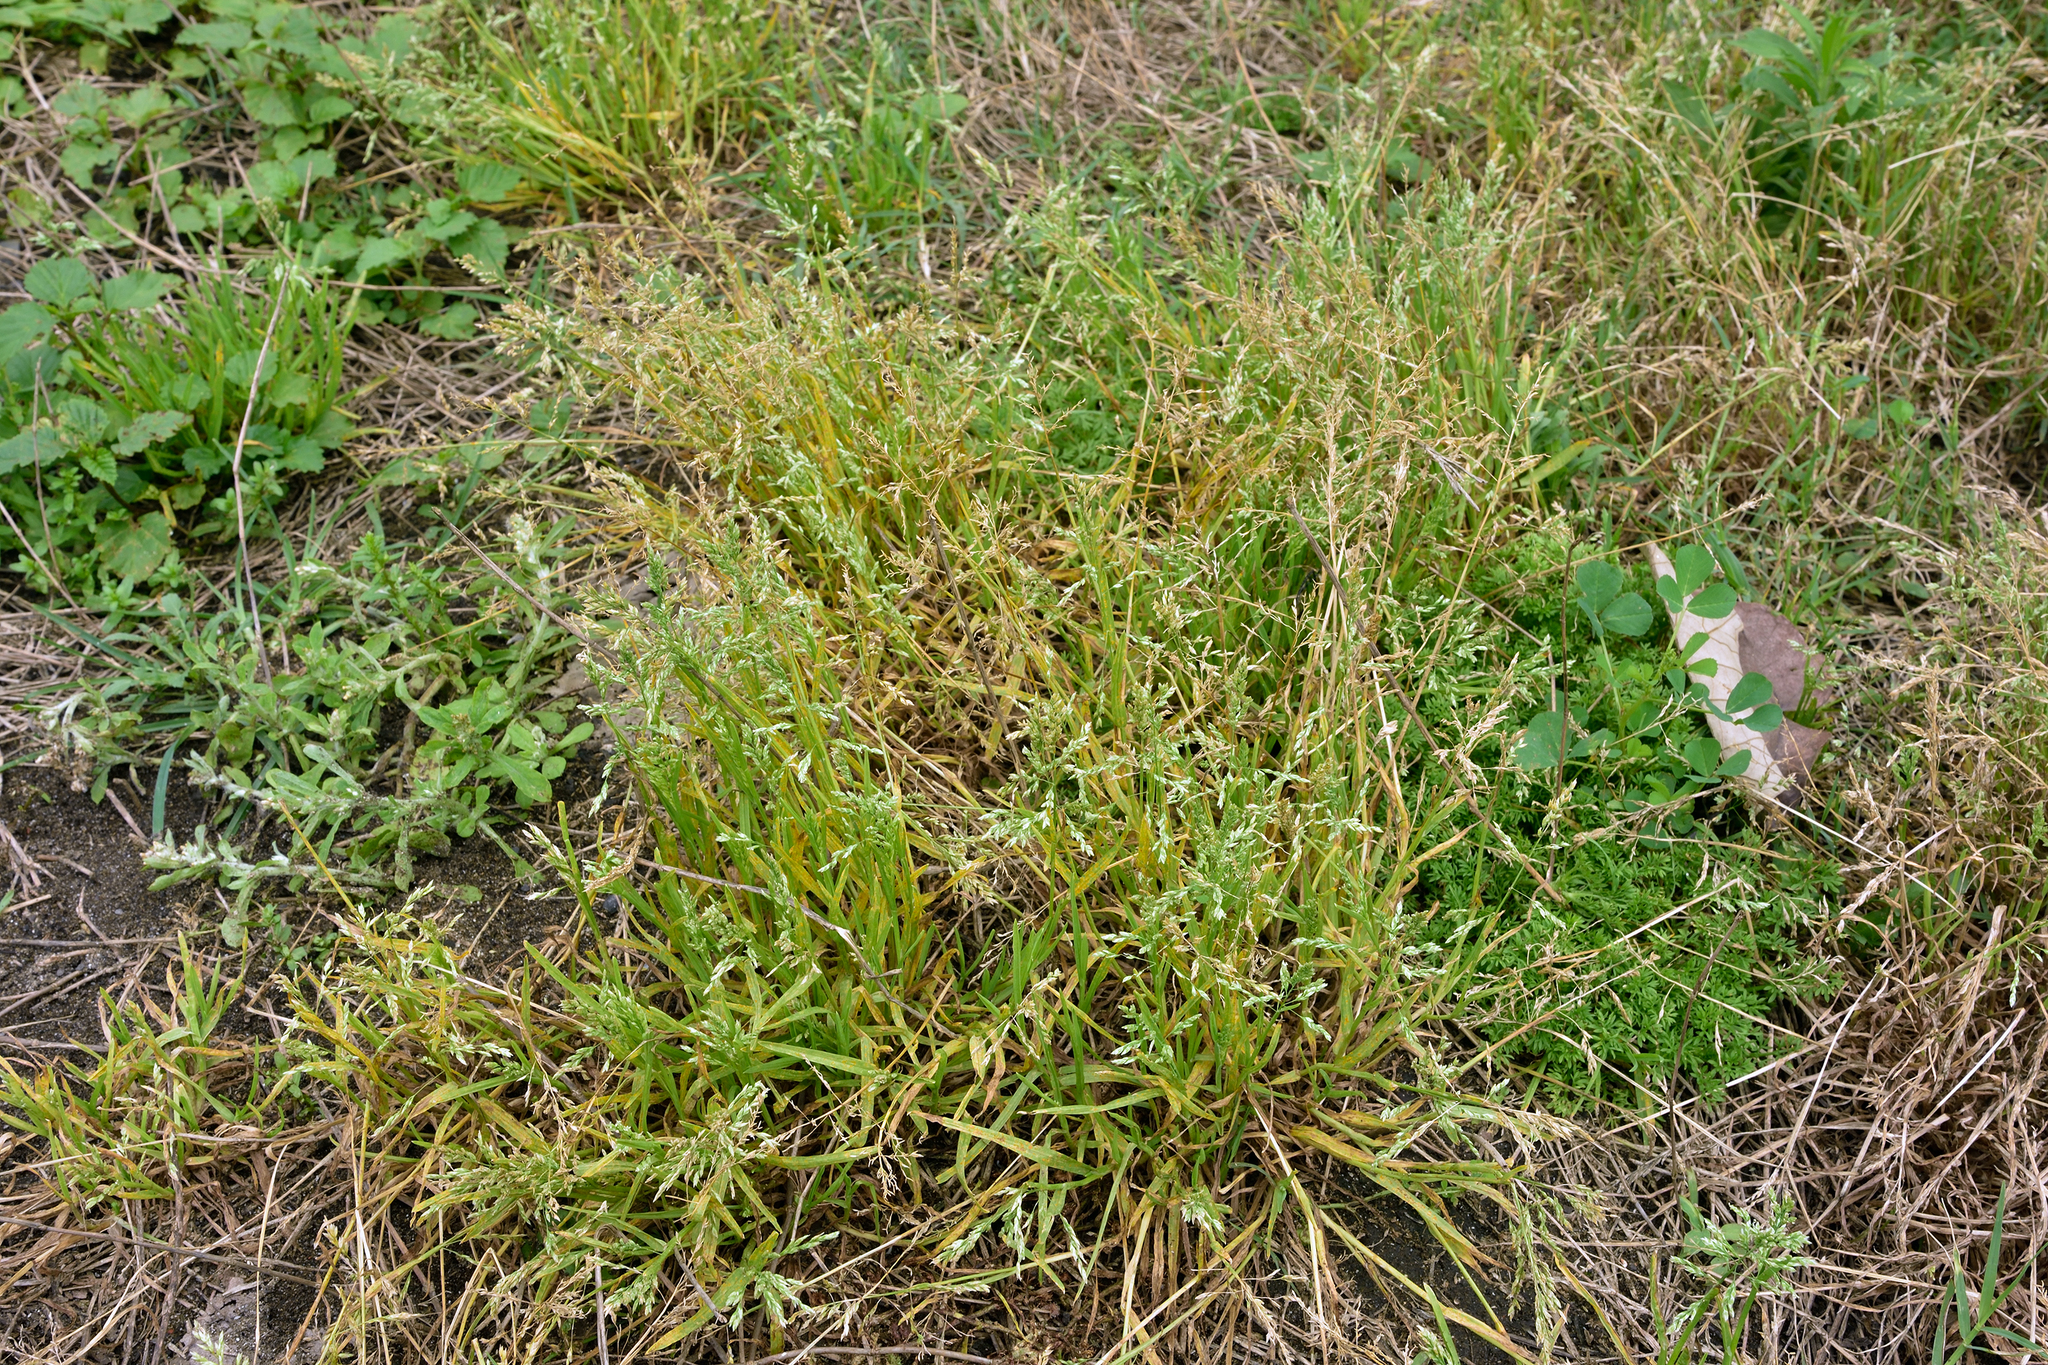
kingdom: Plantae
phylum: Tracheophyta
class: Liliopsida
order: Poales
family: Poaceae
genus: Poa
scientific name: Poa annua
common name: Annual bluegrass
